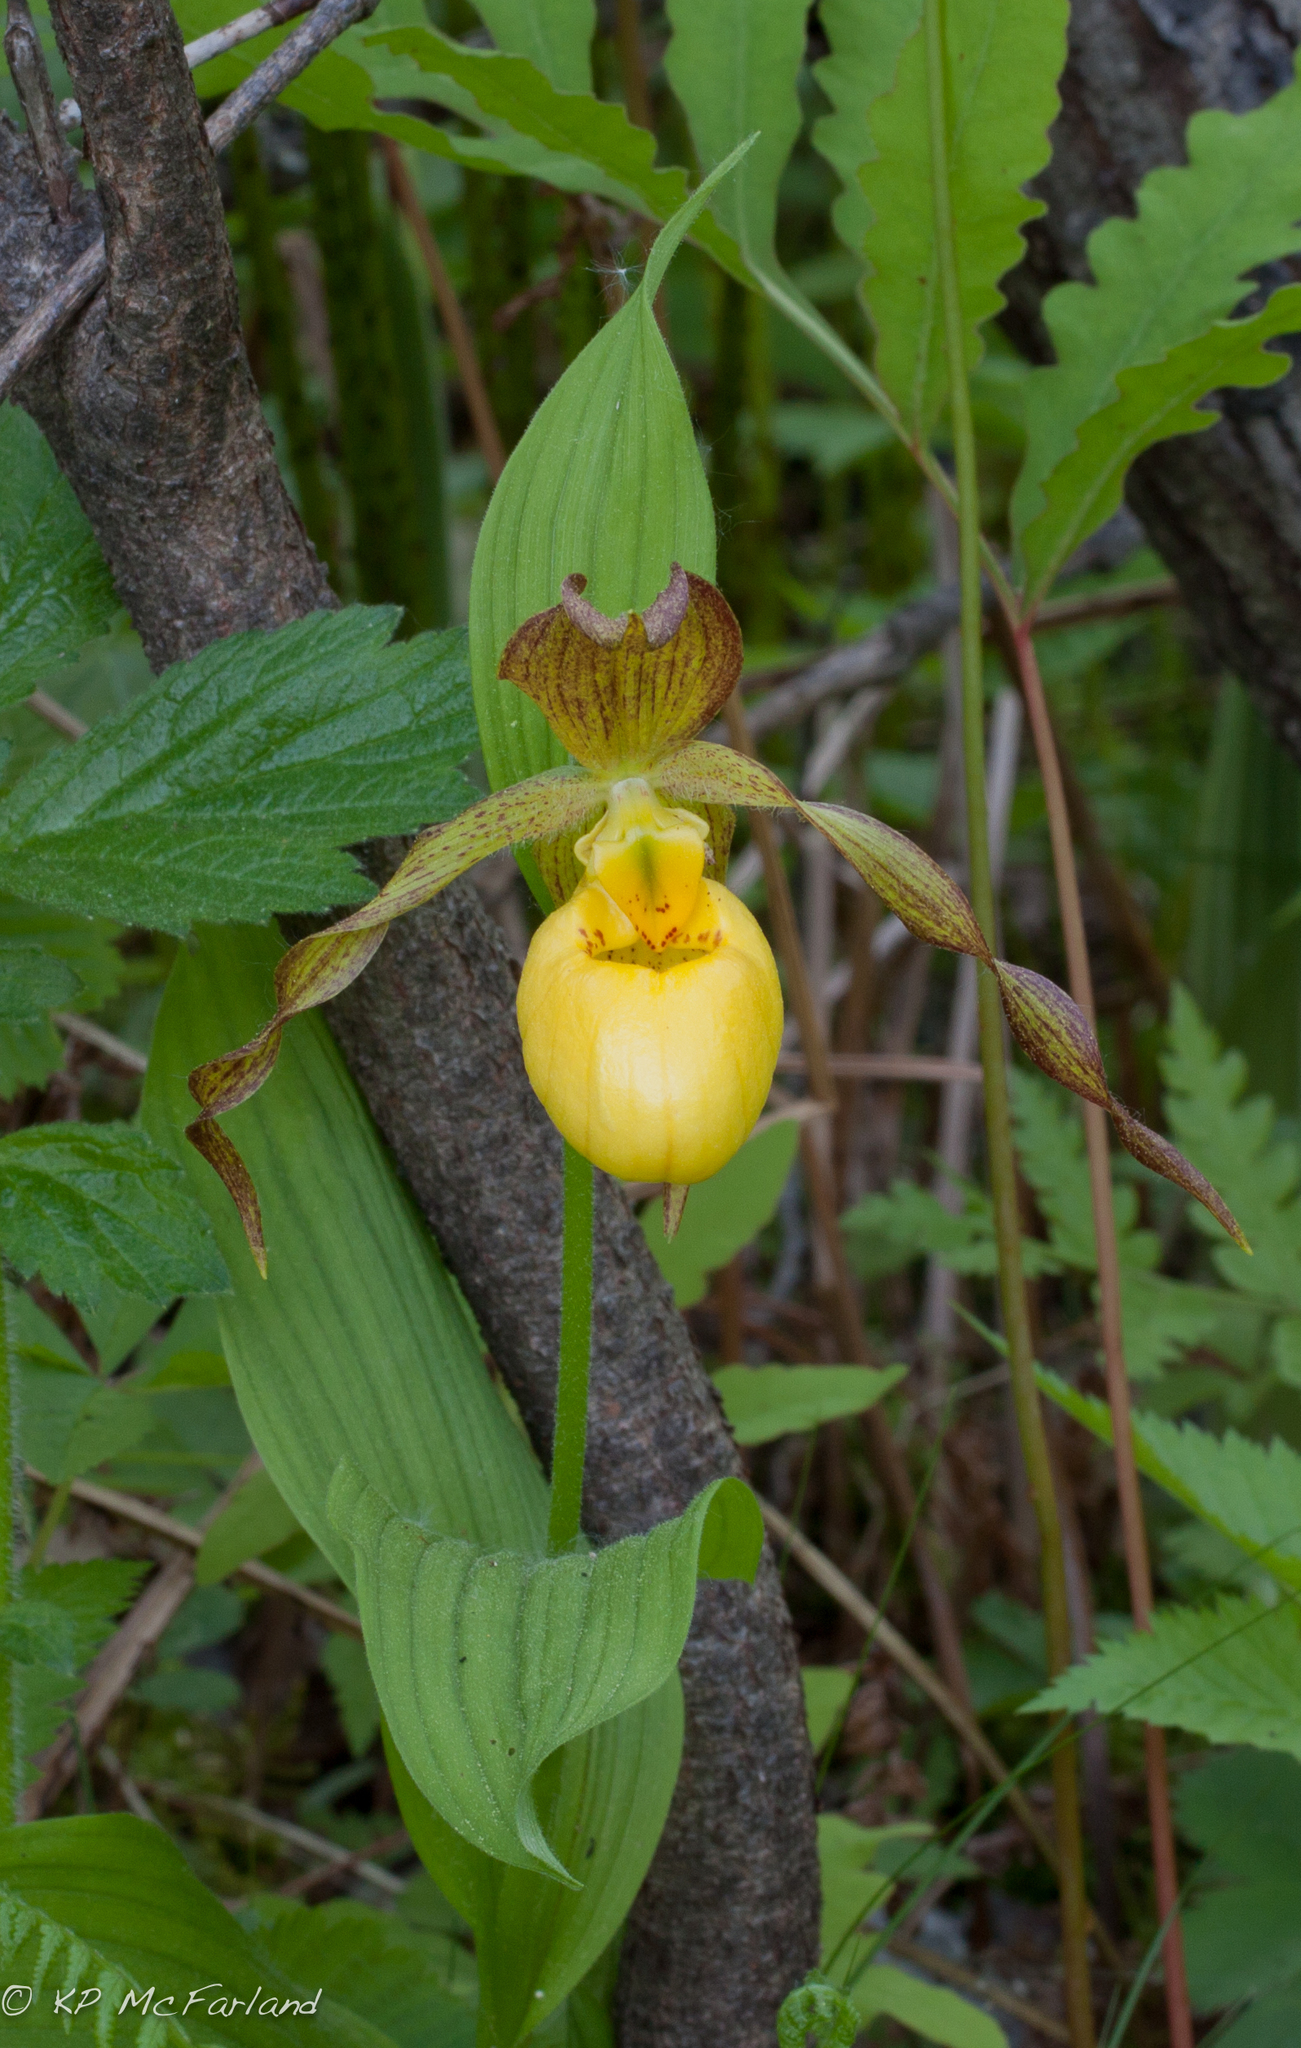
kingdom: Plantae
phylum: Tracheophyta
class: Liliopsida
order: Asparagales
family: Orchidaceae
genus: Cypripedium
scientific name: Cypripedium parviflorum
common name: American yellow lady's-slipper
